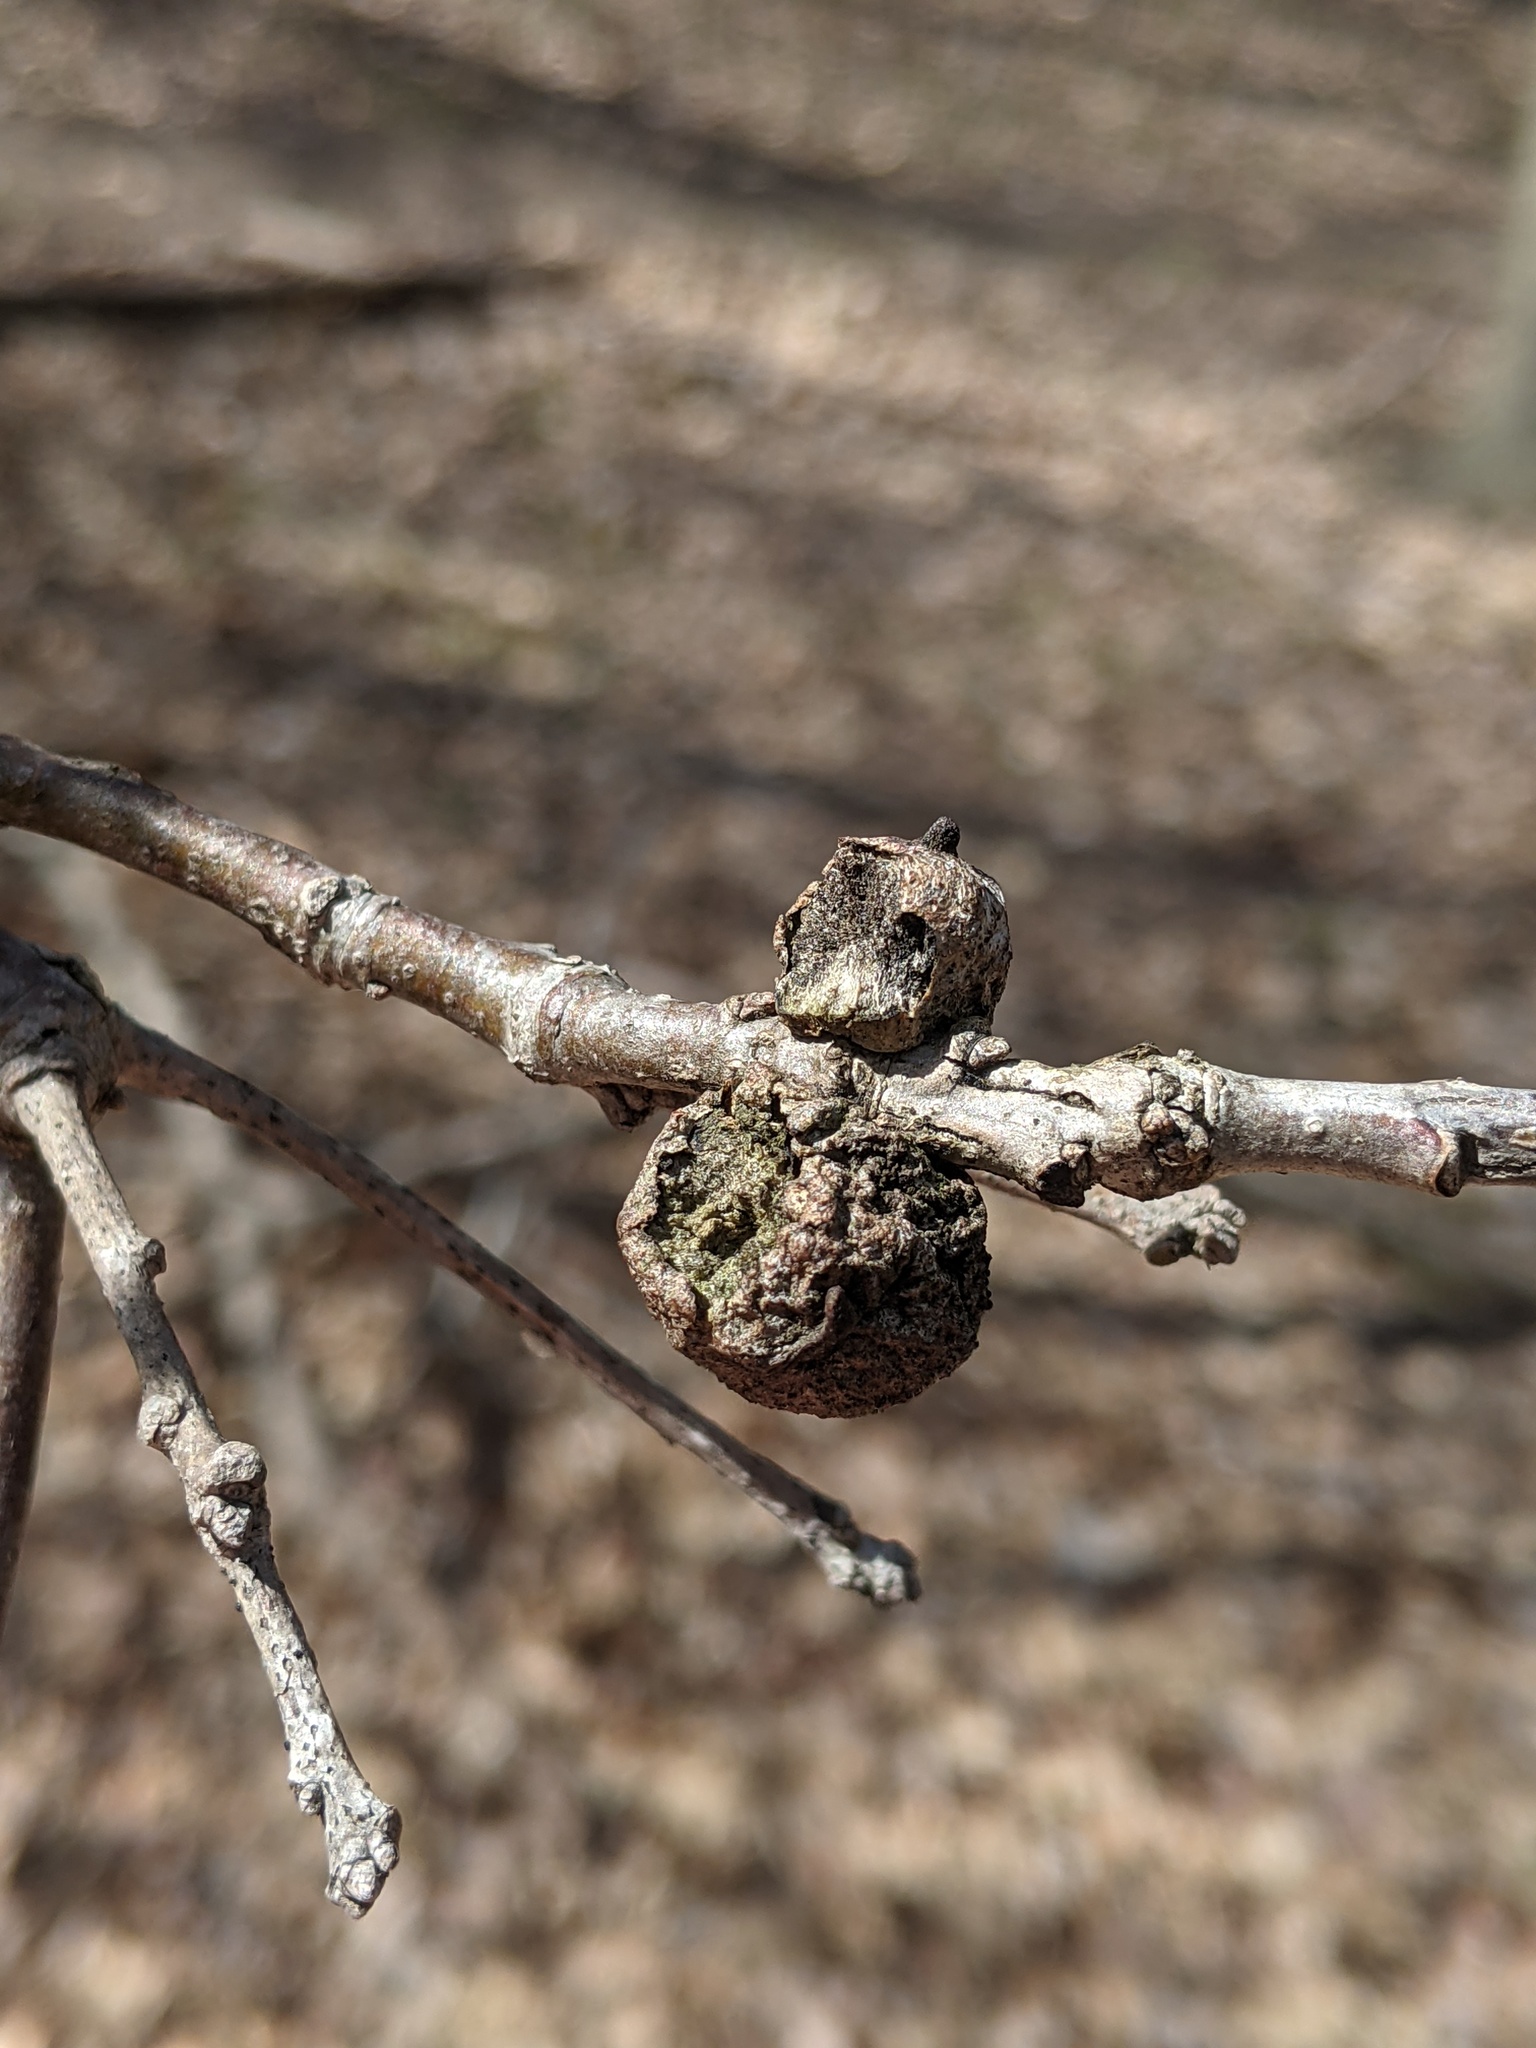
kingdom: Animalia
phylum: Arthropoda
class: Insecta
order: Hymenoptera
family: Cynipidae
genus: Disholcaspis
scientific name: Disholcaspis
